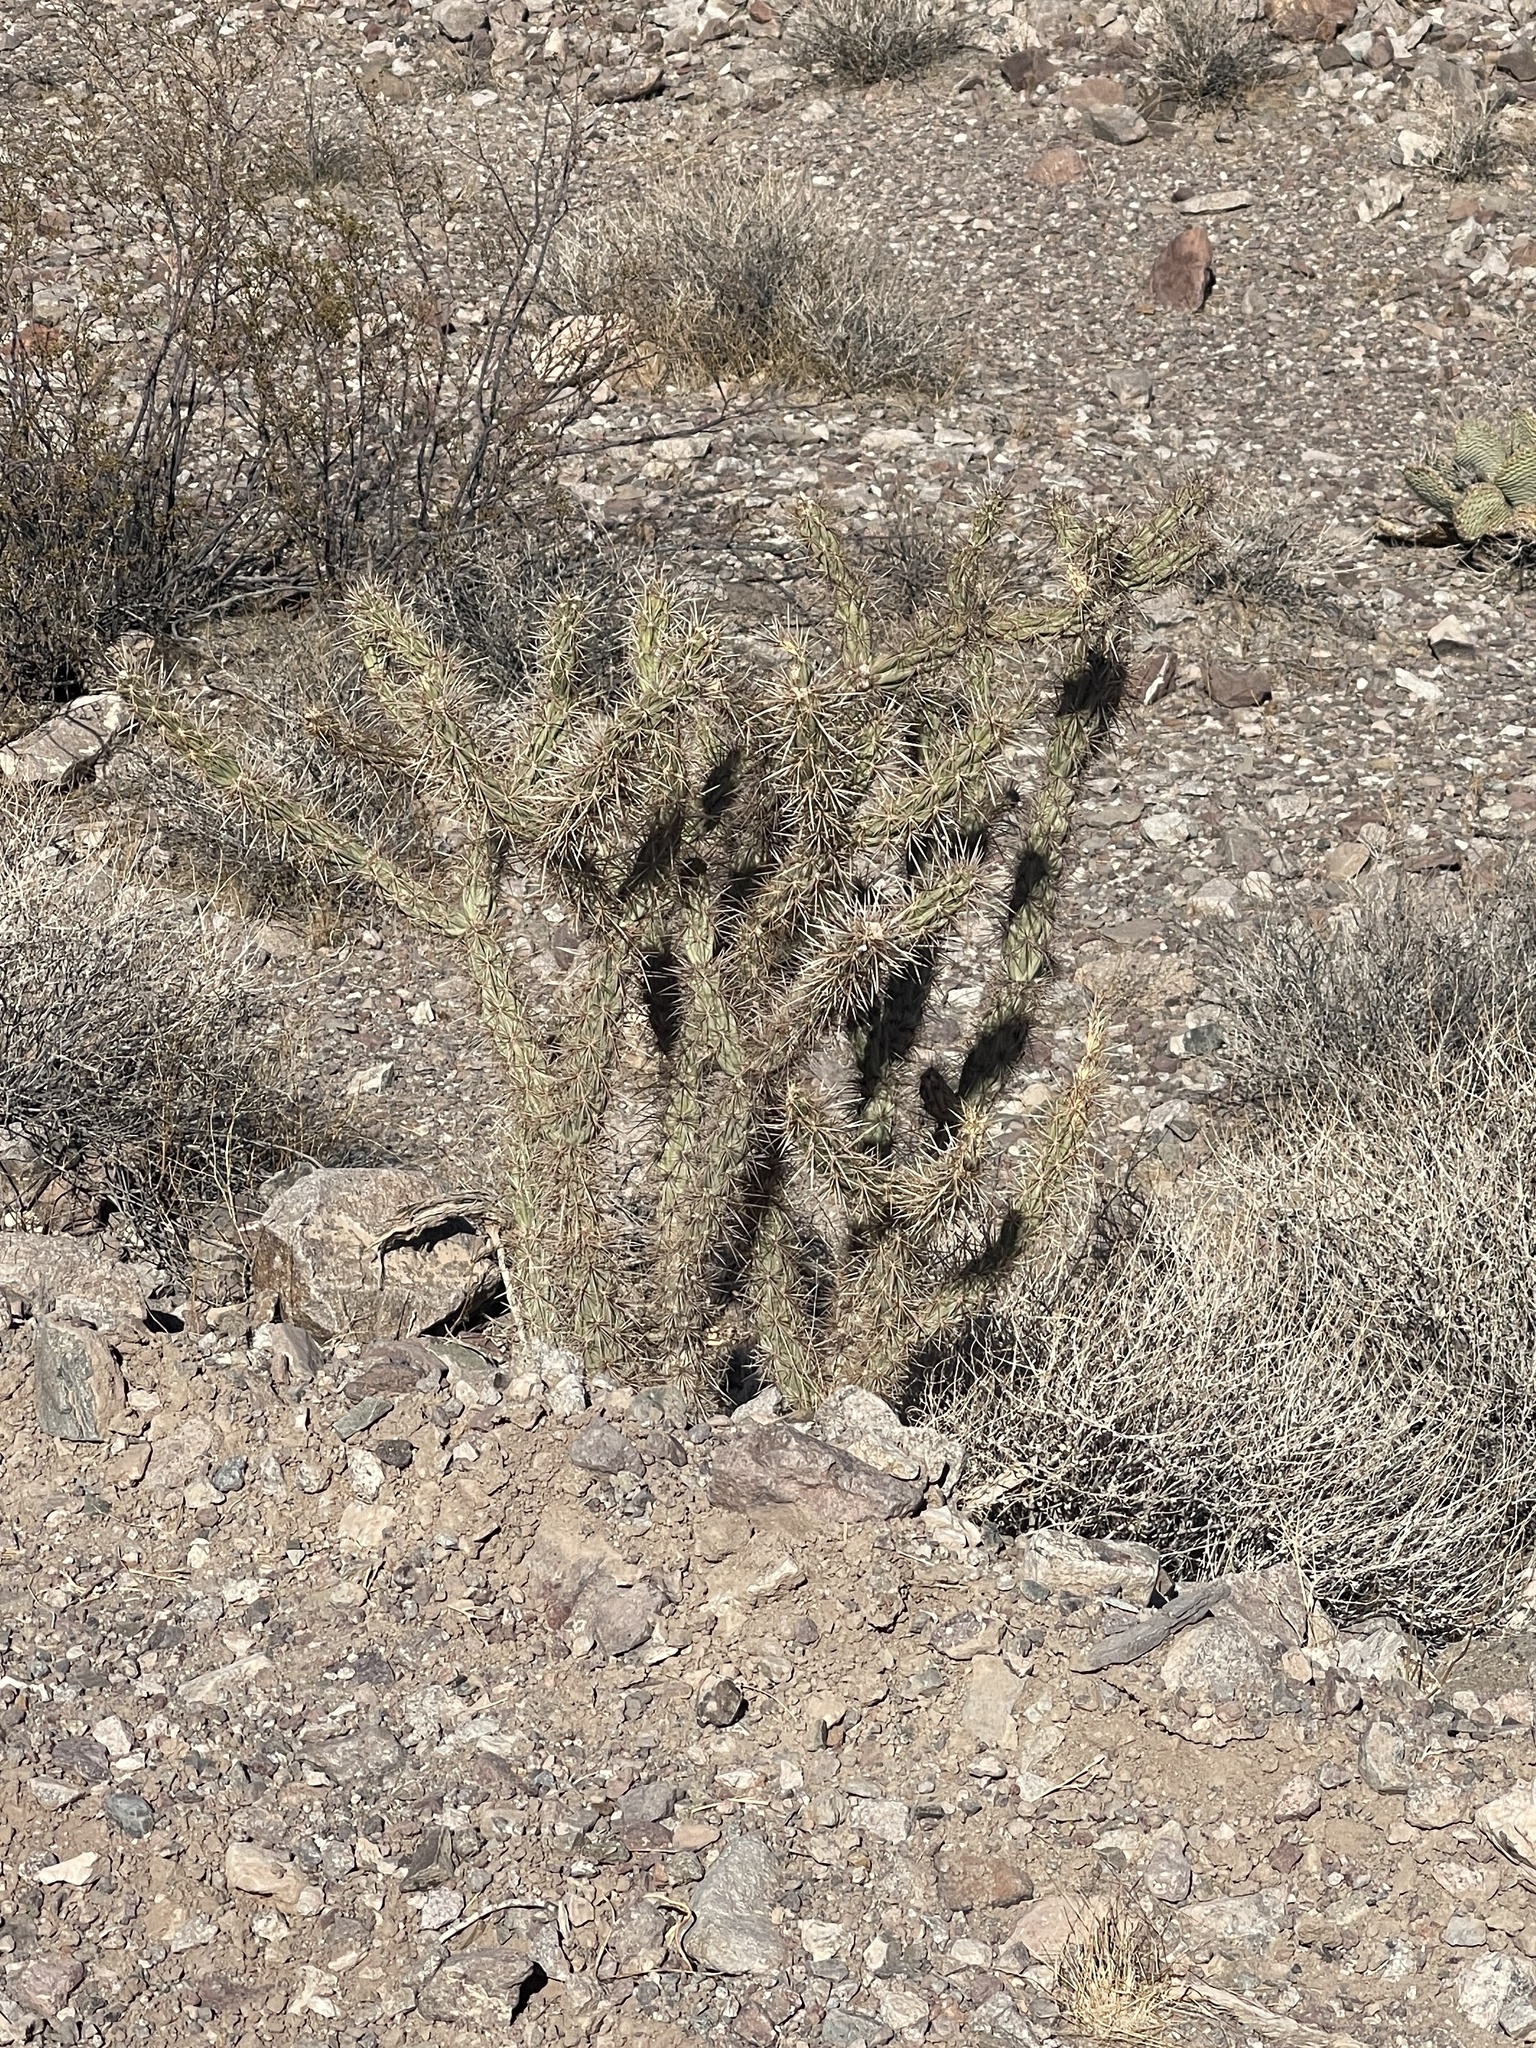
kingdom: Plantae
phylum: Tracheophyta
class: Magnoliopsida
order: Caryophyllales
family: Cactaceae
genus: Cylindropuntia
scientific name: Cylindropuntia acanthocarpa
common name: Buckhorn cholla
